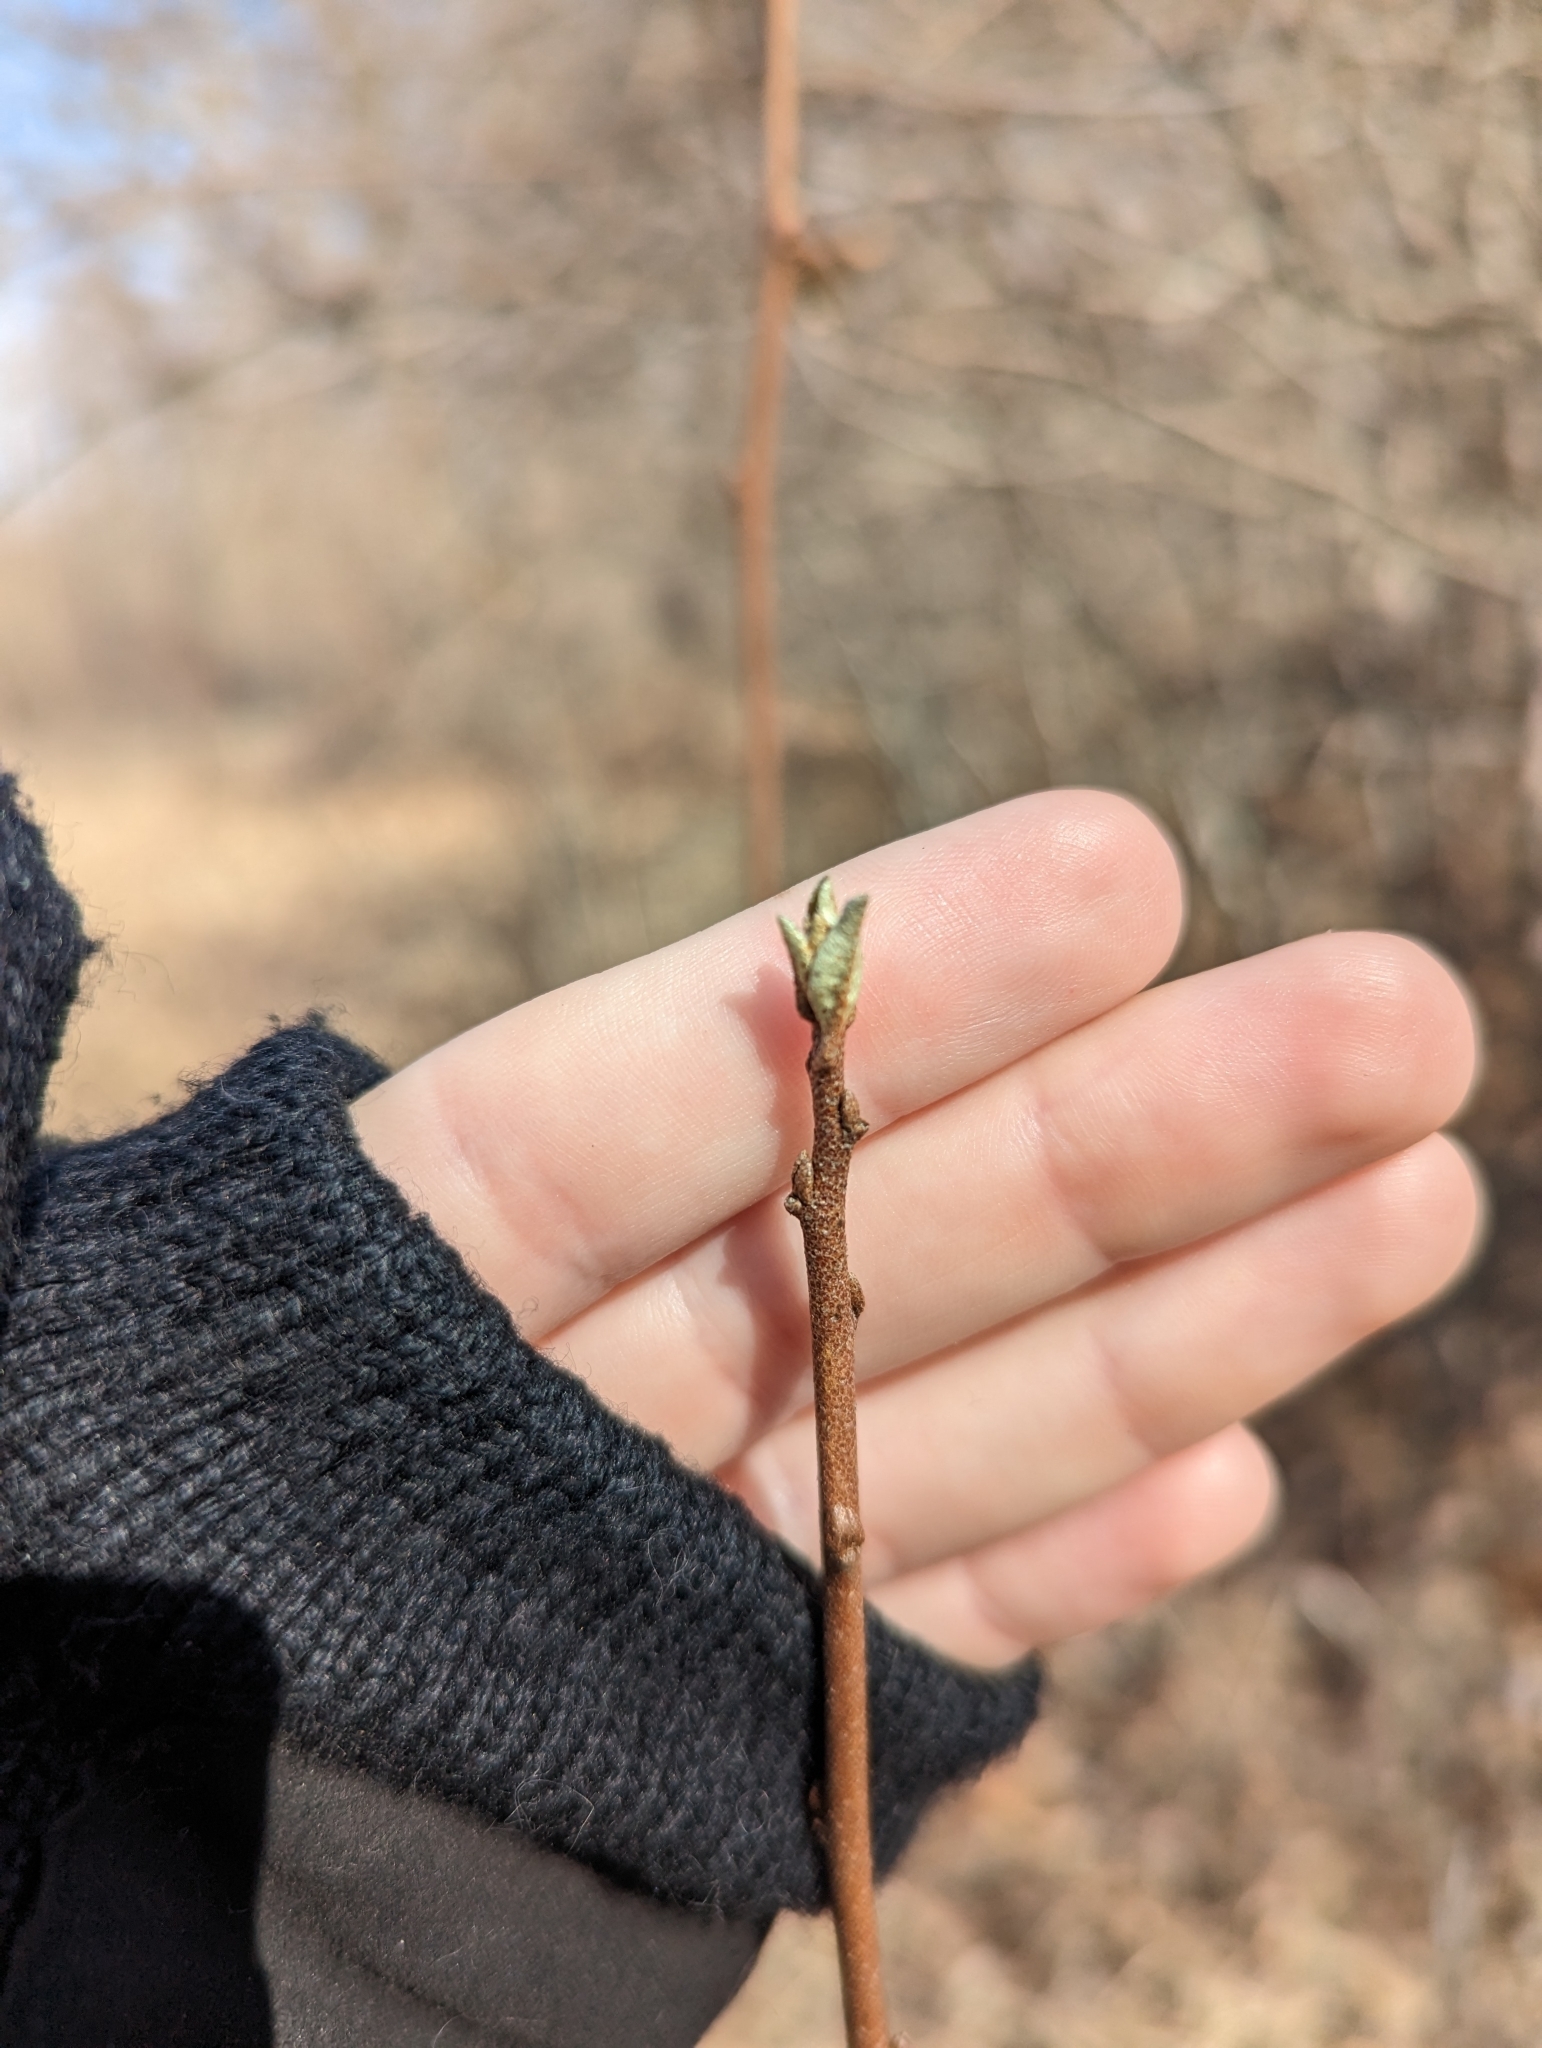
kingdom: Plantae
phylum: Tracheophyta
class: Magnoliopsida
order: Rosales
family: Elaeagnaceae
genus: Elaeagnus
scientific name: Elaeagnus umbellata
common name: Autumn olive
